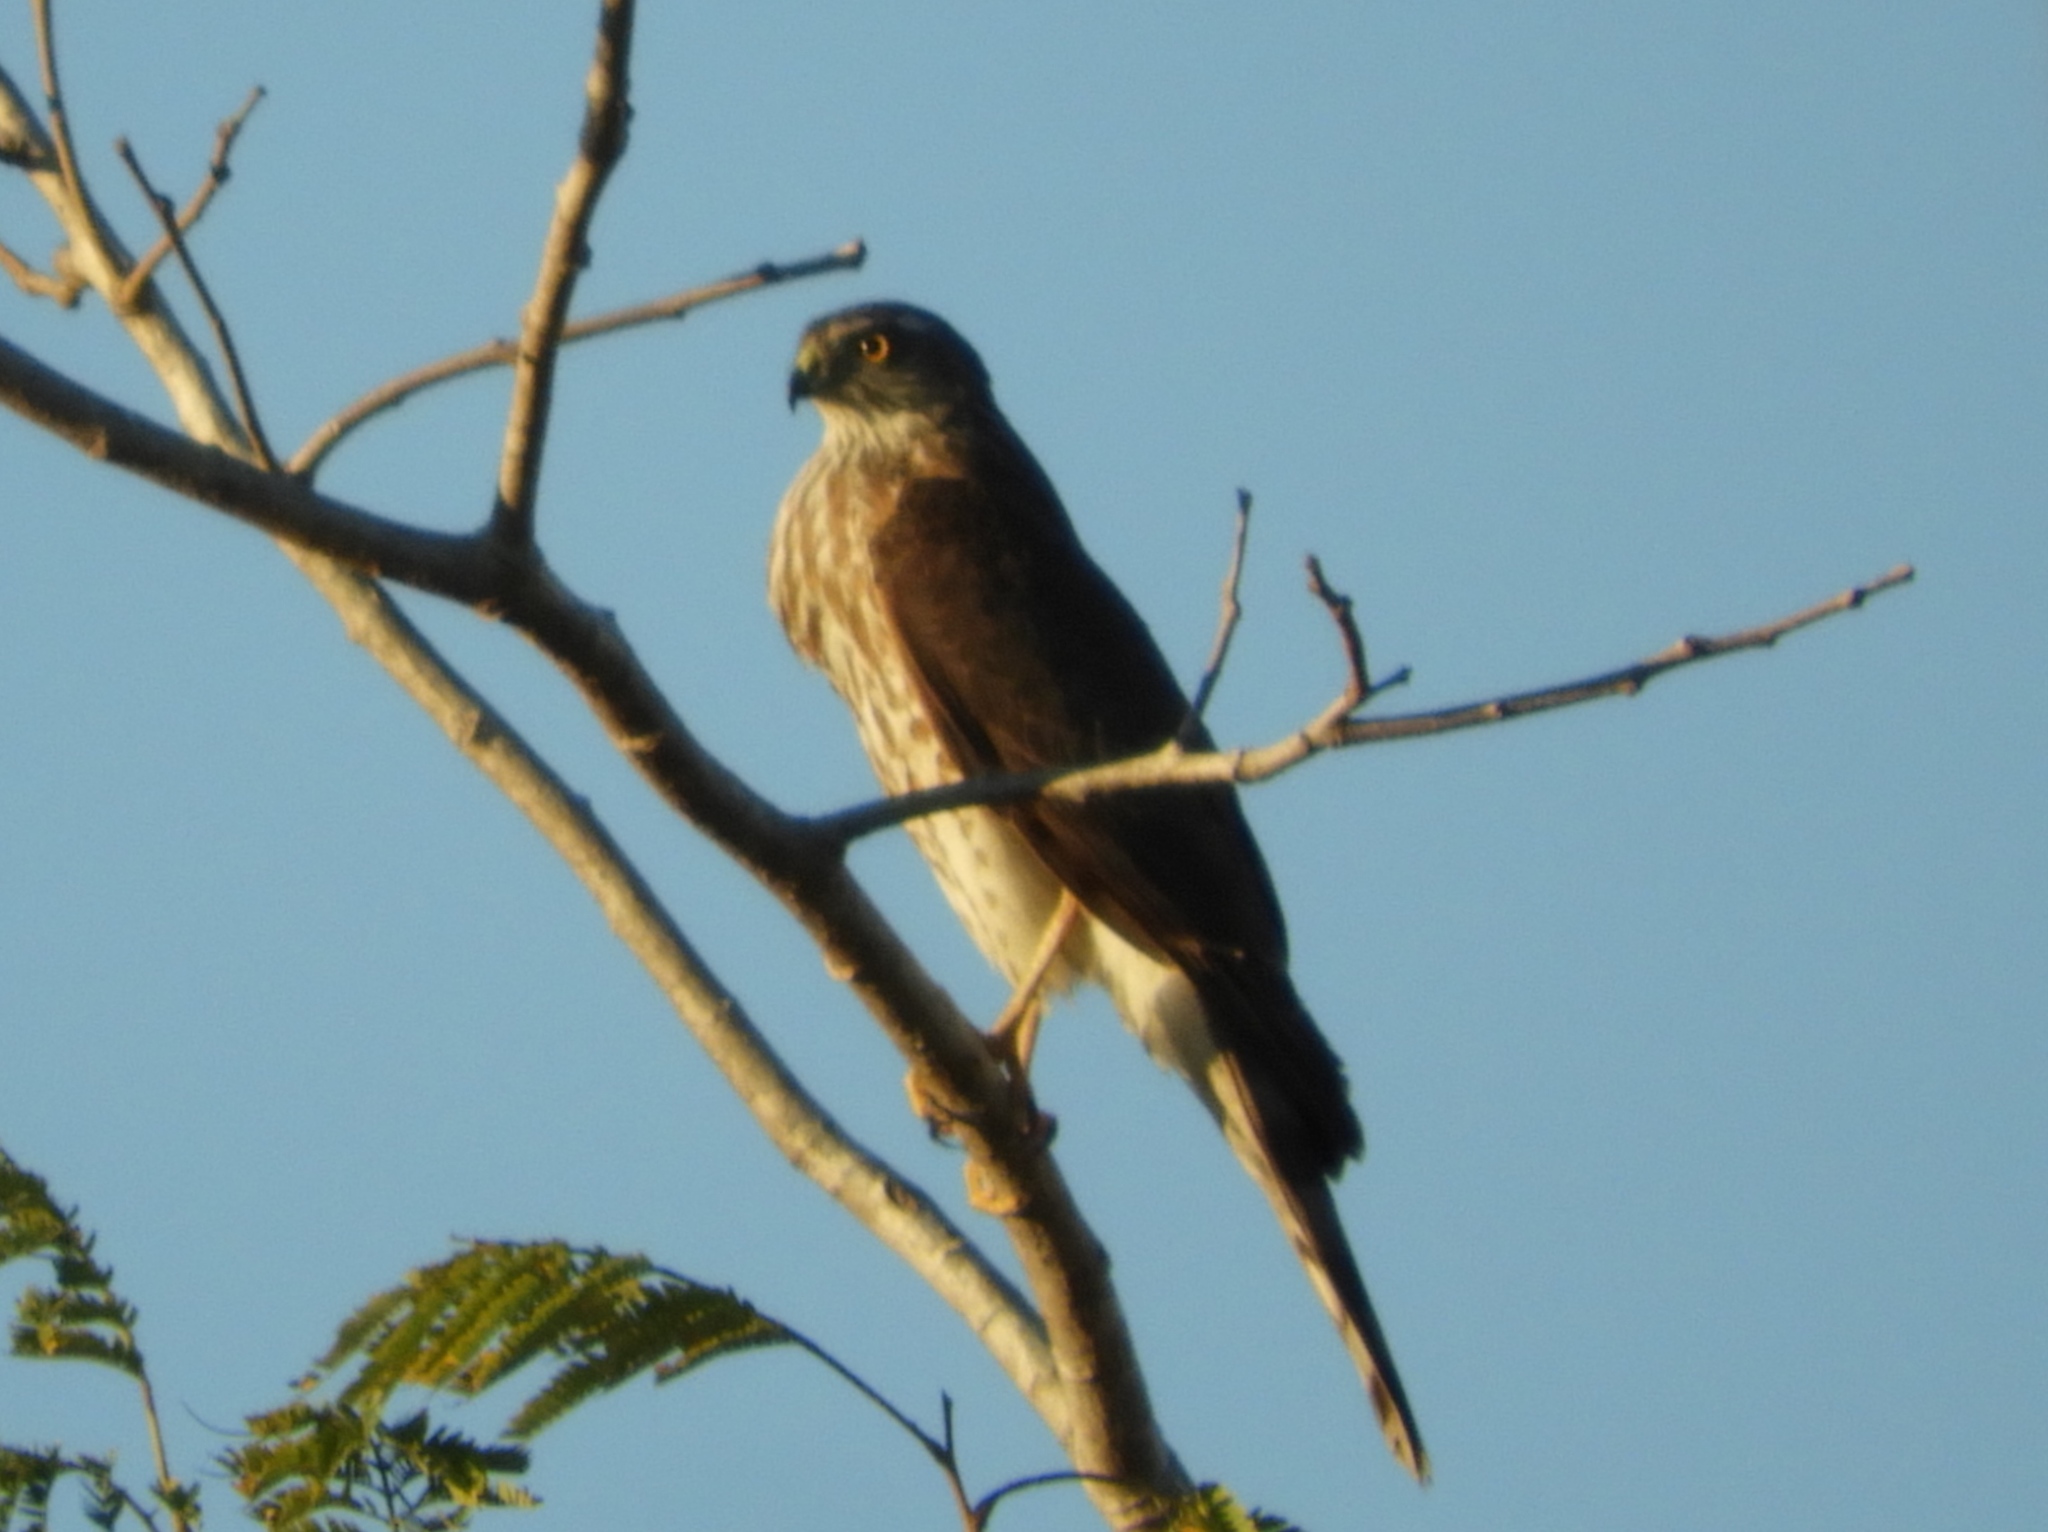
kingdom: Animalia
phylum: Chordata
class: Aves
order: Accipitriformes
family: Accipitridae
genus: Accipiter
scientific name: Accipiter
